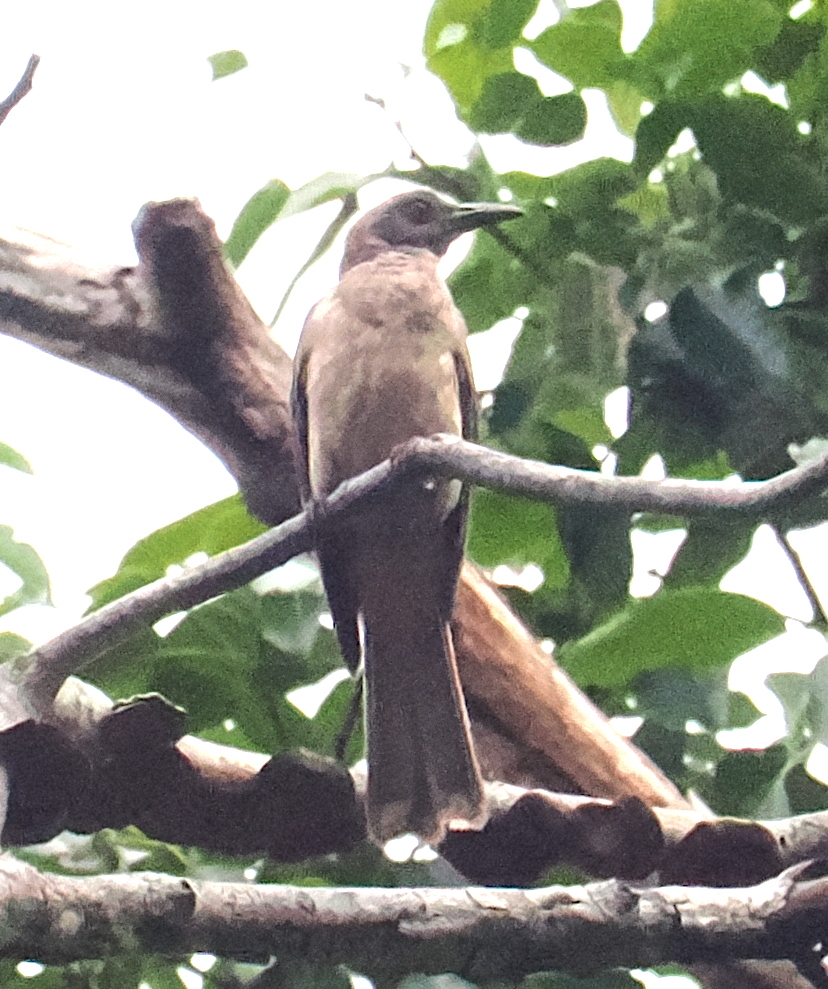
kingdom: Animalia
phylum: Chordata
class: Aves
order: Passeriformes
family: Oriolidae
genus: Oriolus
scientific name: Oriolus finschi
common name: Wetar oriole
